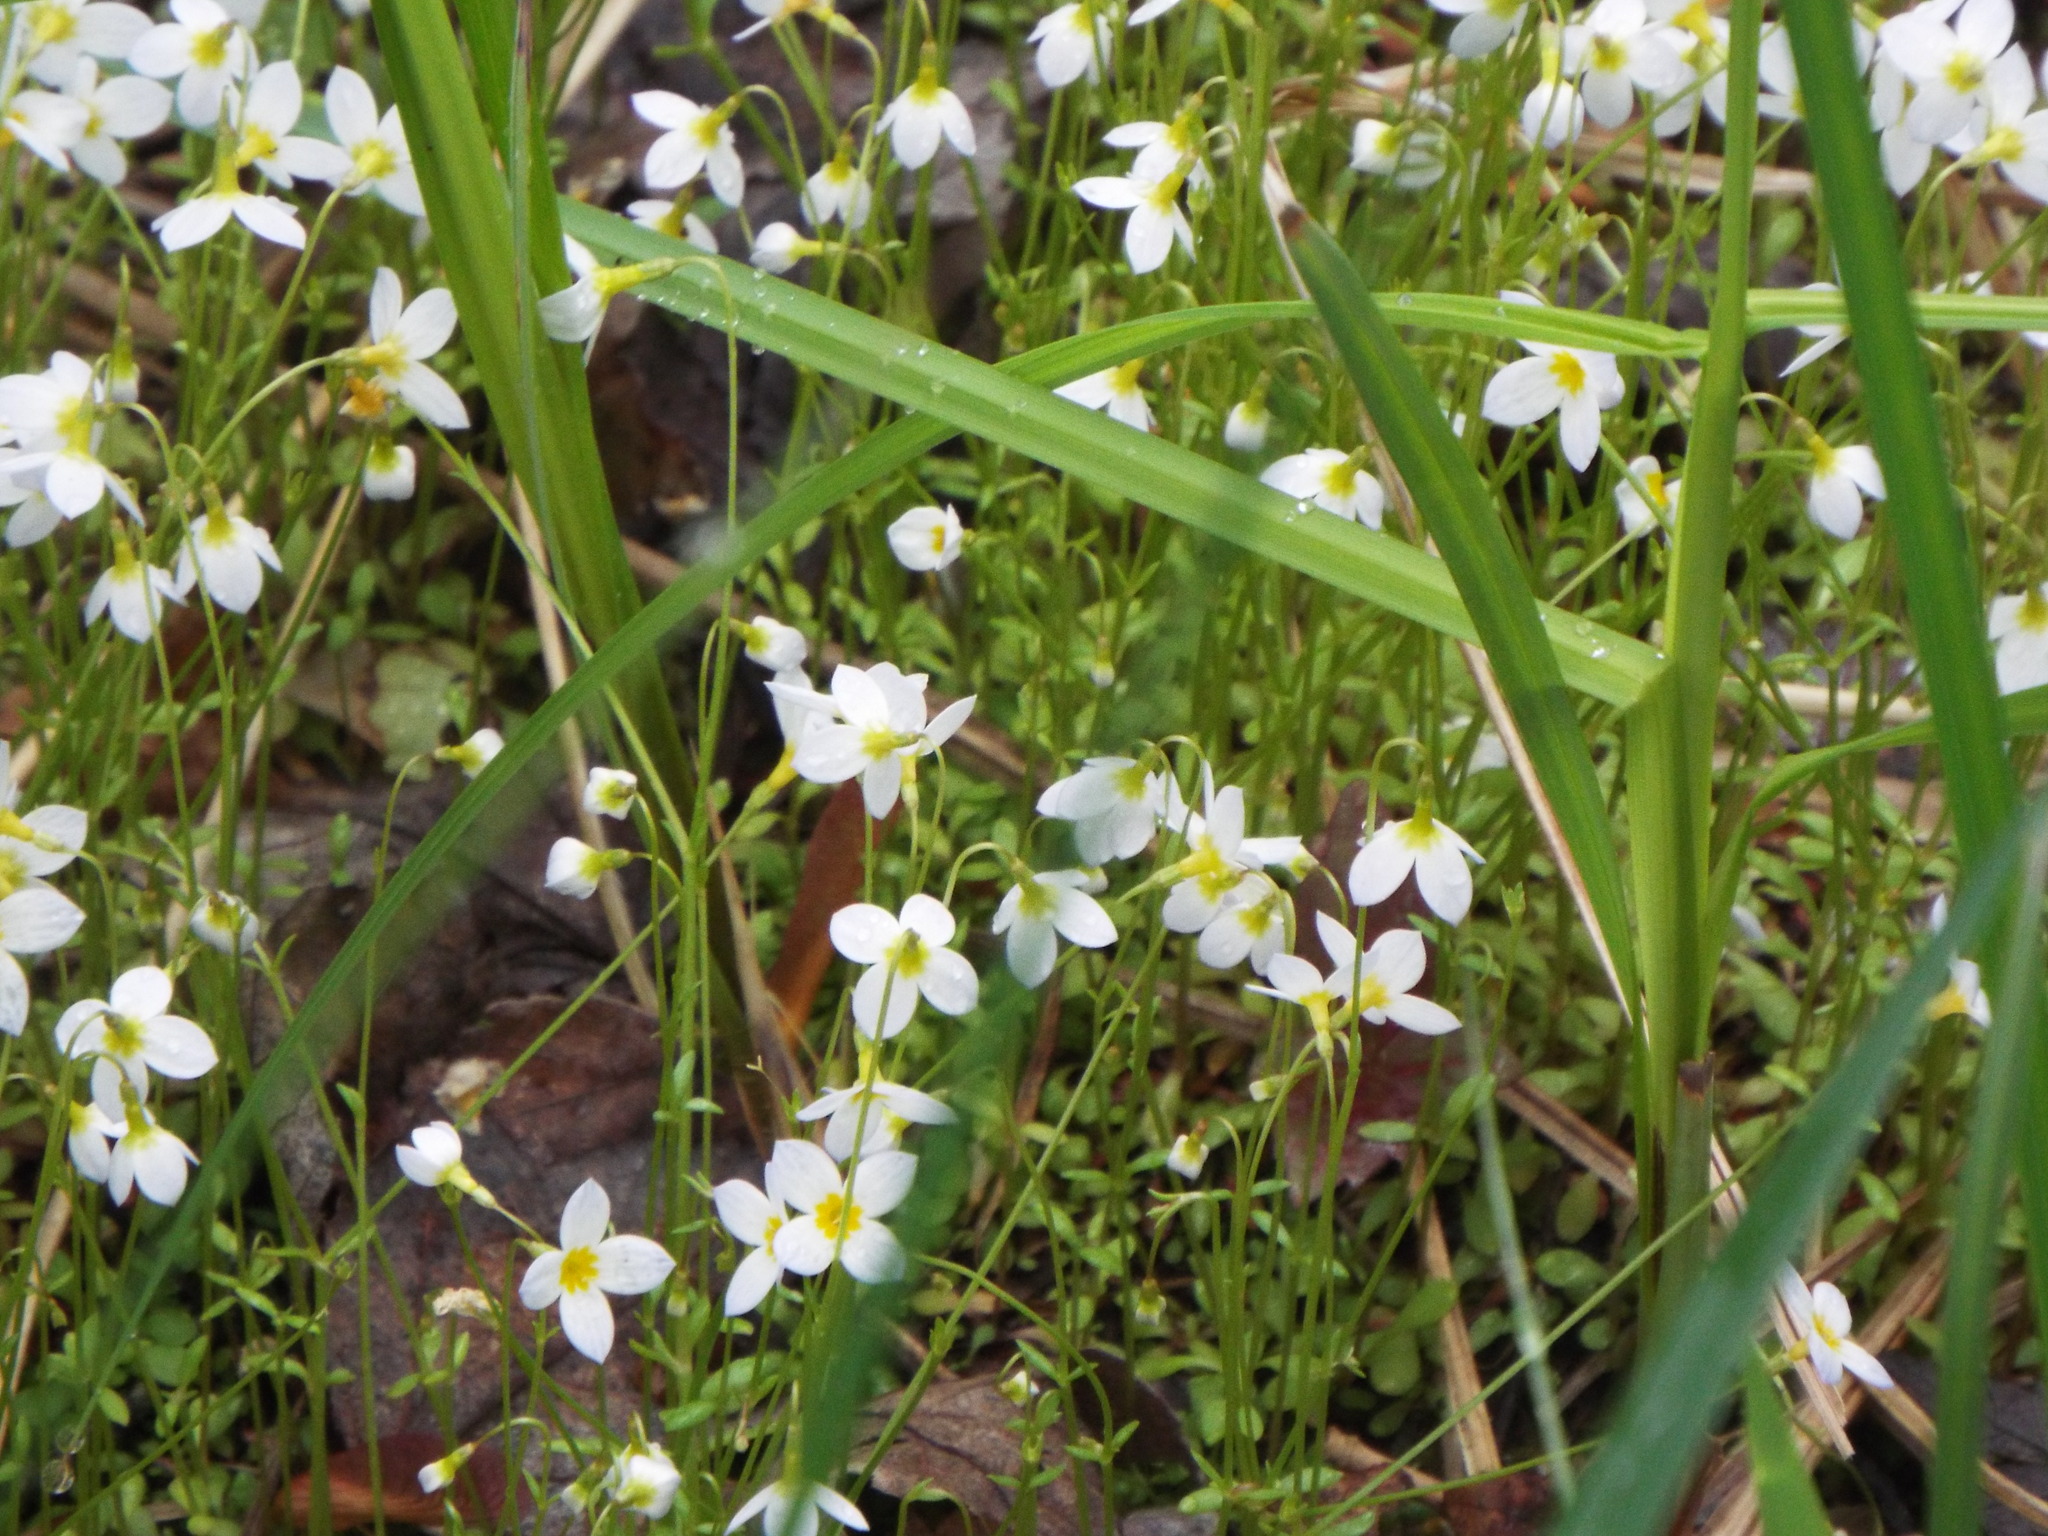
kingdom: Plantae
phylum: Tracheophyta
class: Magnoliopsida
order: Gentianales
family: Rubiaceae
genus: Houstonia
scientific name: Houstonia caerulea
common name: Bluets
